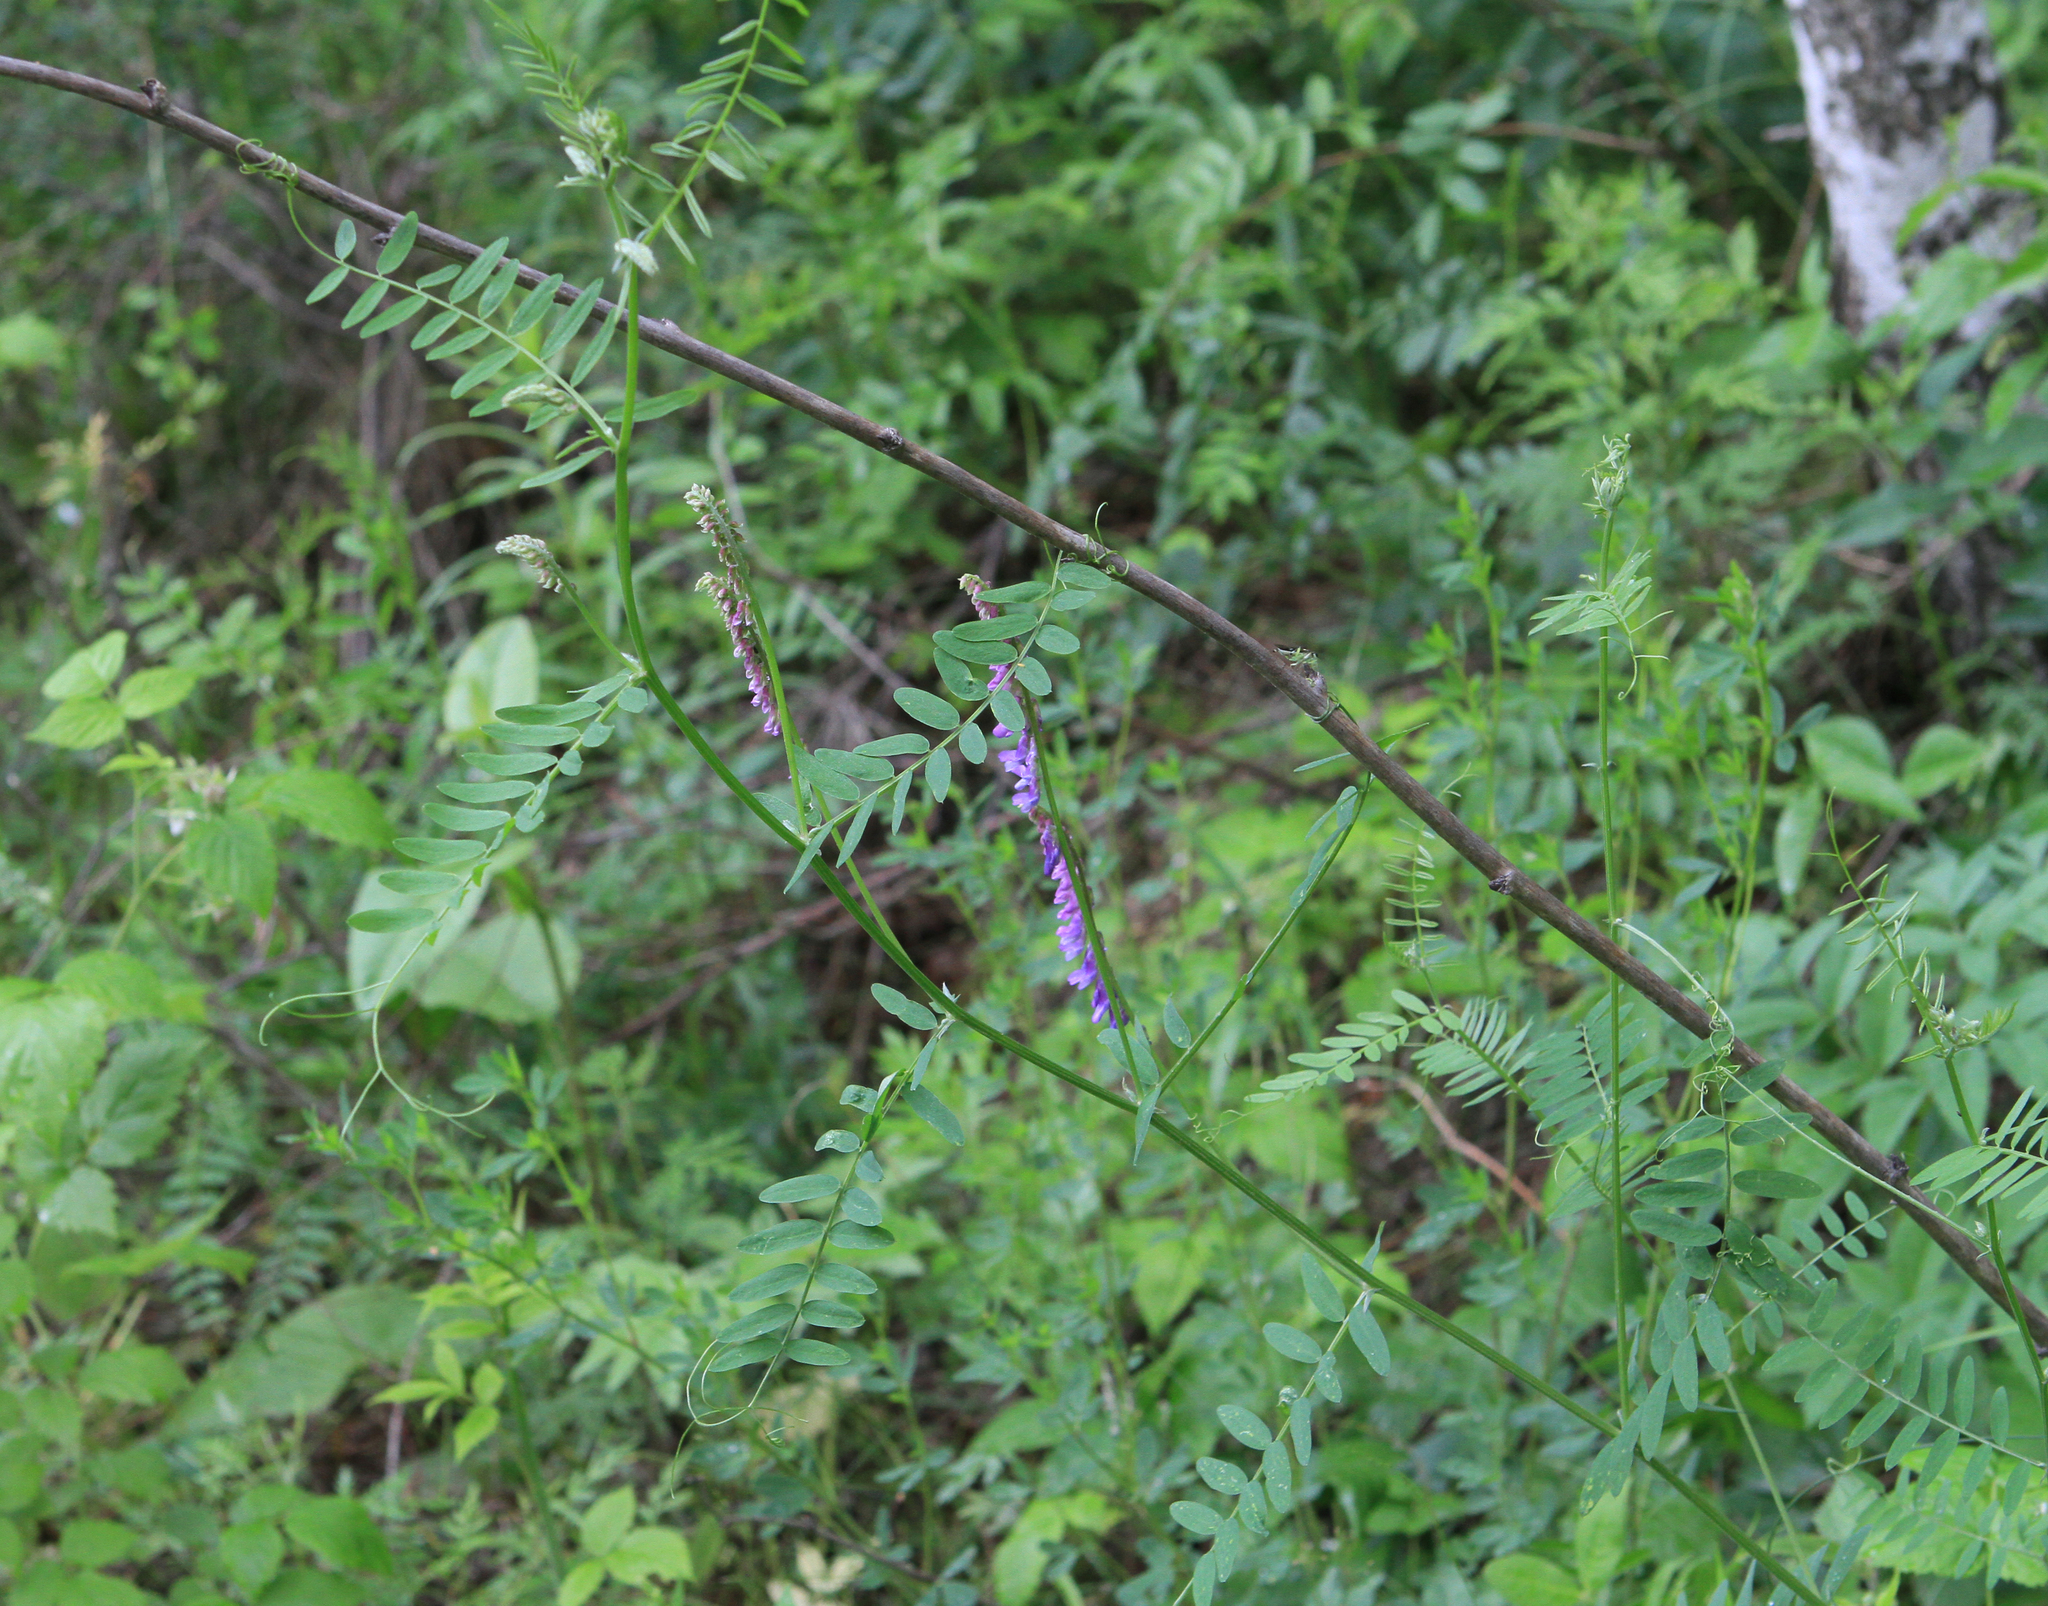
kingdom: Plantae
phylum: Tracheophyta
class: Magnoliopsida
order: Fabales
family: Fabaceae
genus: Vicia
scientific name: Vicia cracca
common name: Bird vetch
